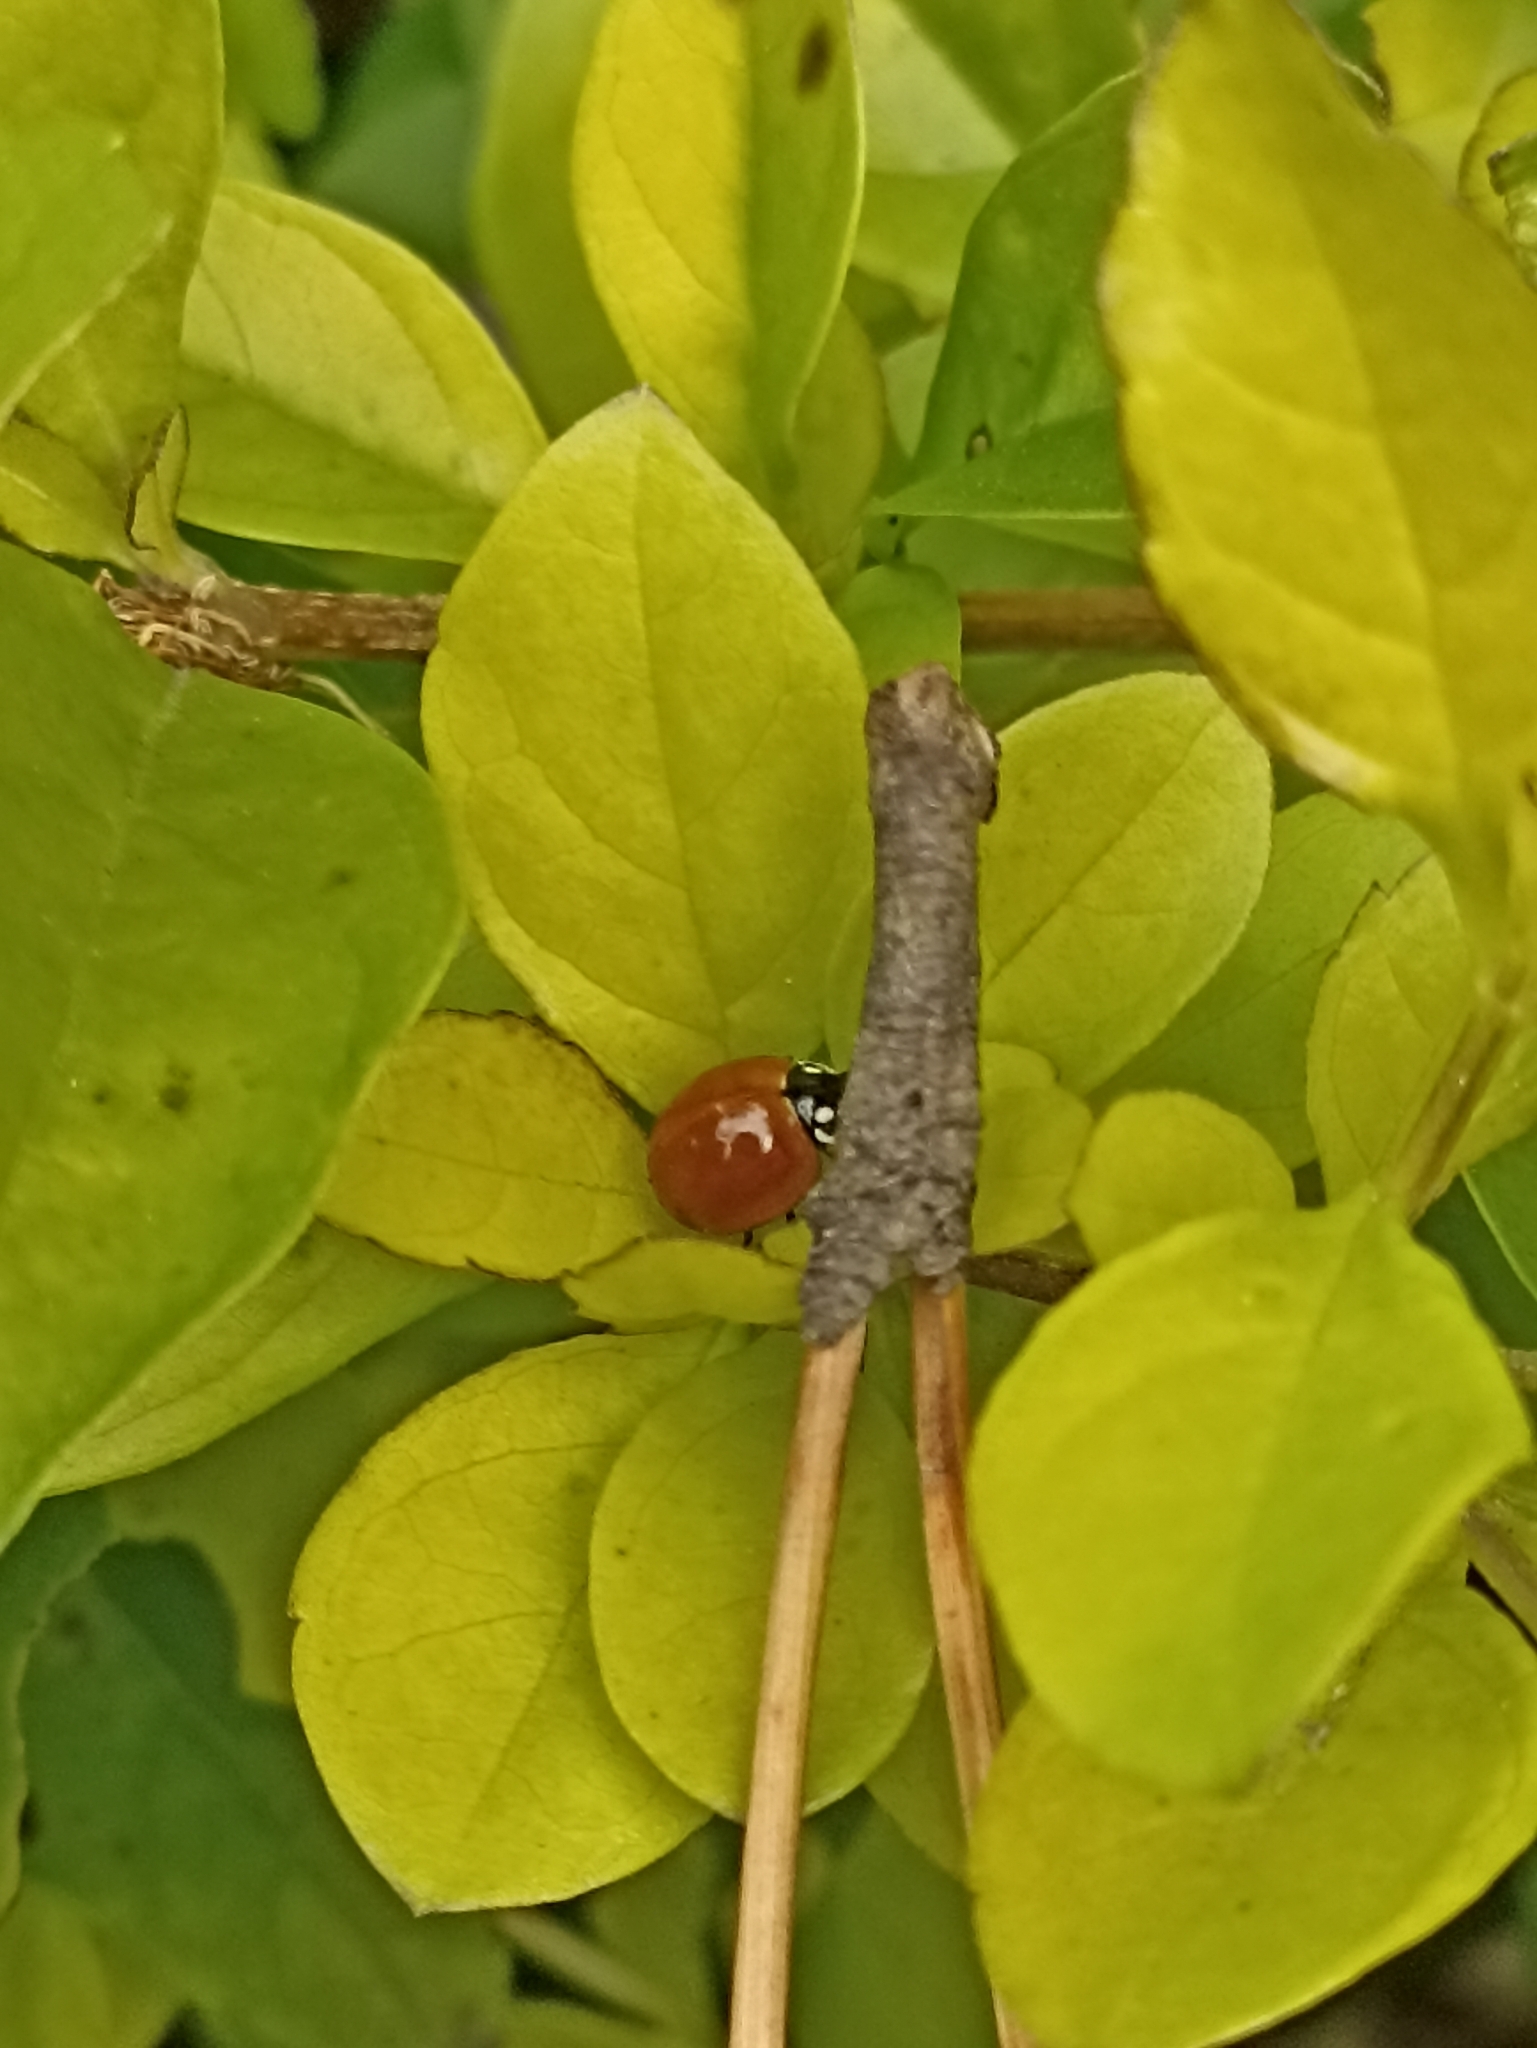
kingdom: Animalia
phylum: Arthropoda
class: Insecta
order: Coleoptera
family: Coccinellidae
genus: Cycloneda
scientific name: Cycloneda sanguinea
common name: Ladybird beetle
